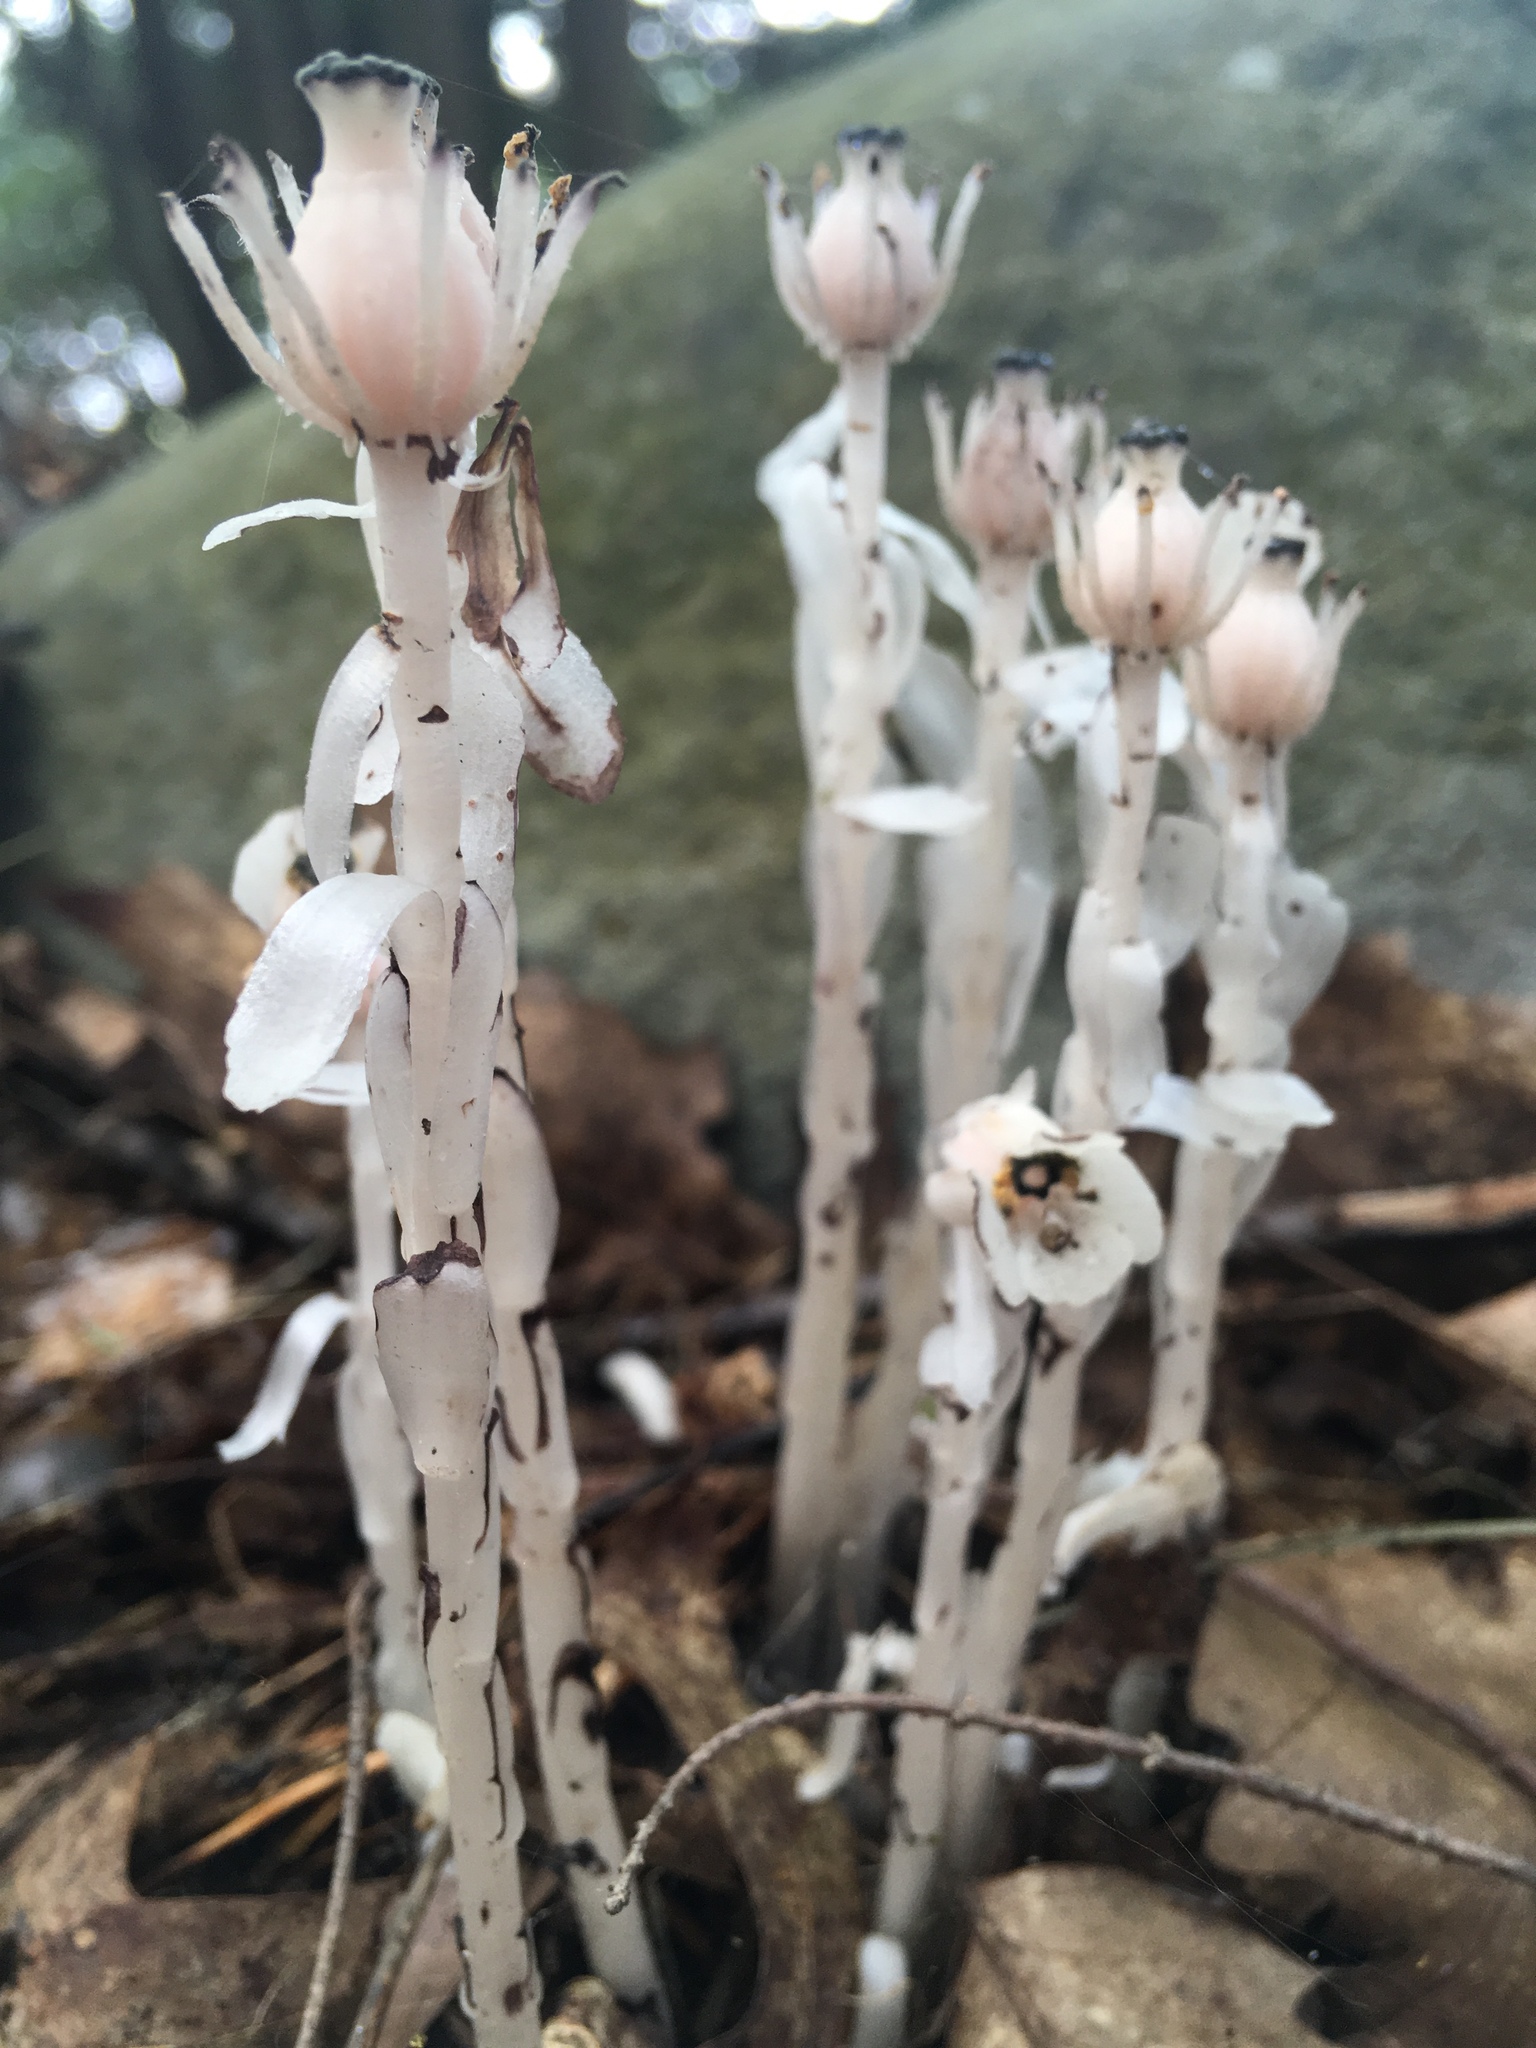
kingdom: Plantae
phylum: Tracheophyta
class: Magnoliopsida
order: Ericales
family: Ericaceae
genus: Monotropa
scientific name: Monotropa uniflora
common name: Convulsion root
